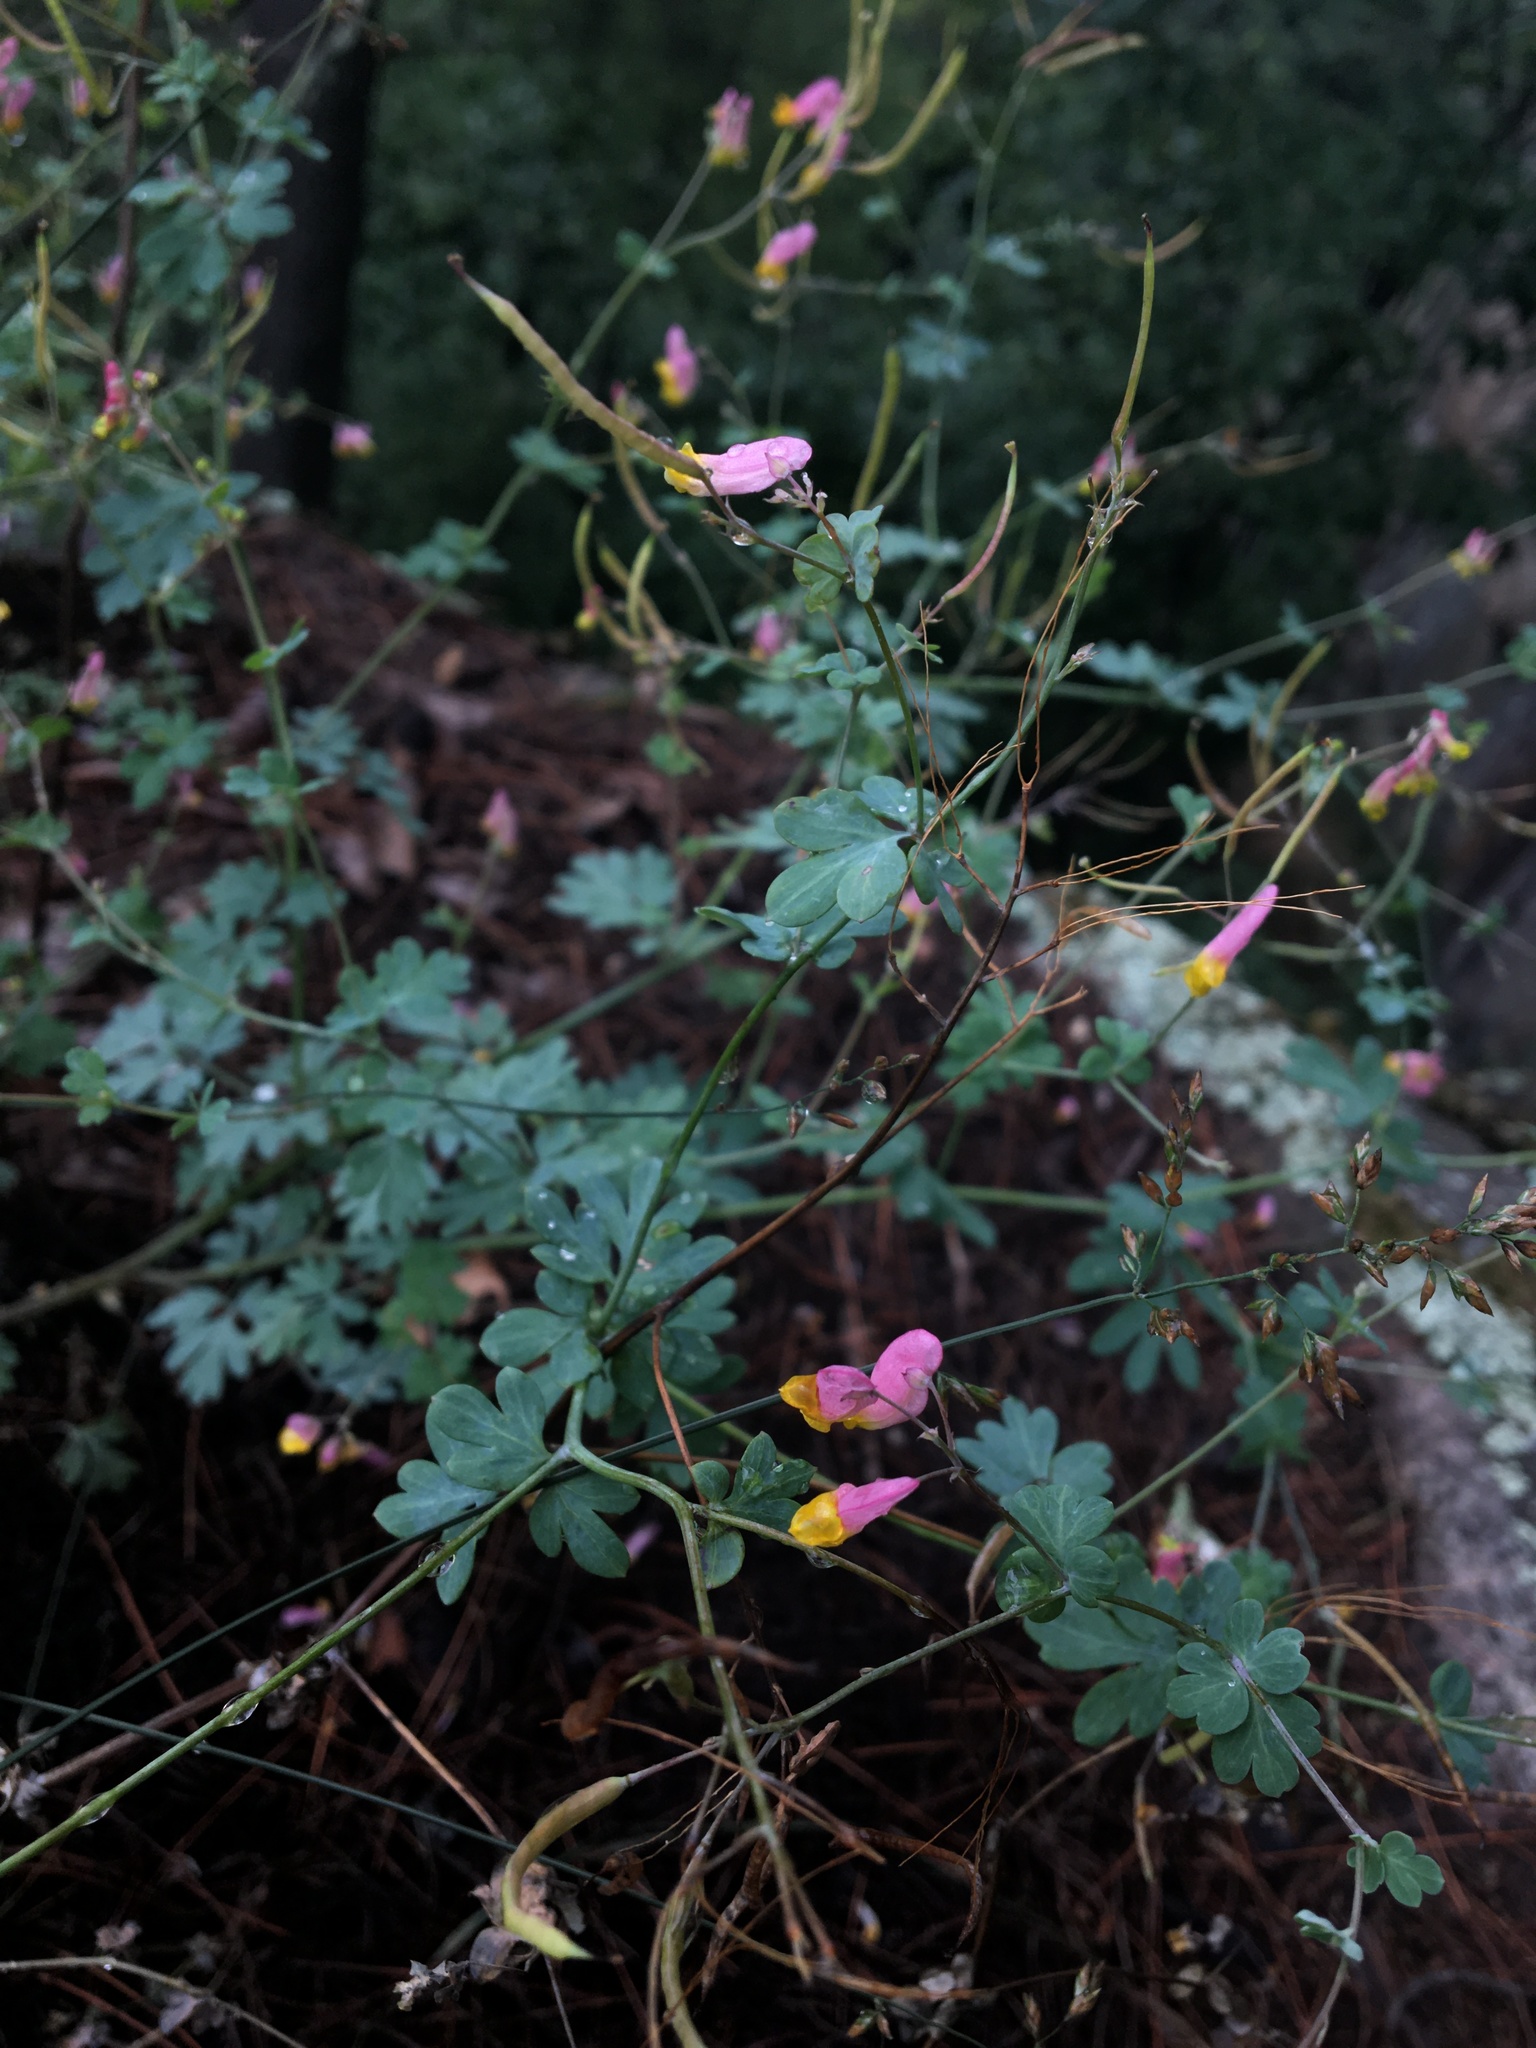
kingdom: Plantae
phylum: Tracheophyta
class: Magnoliopsida
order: Ranunculales
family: Papaveraceae
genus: Capnoides
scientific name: Capnoides sempervirens
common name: Rock harlequin
